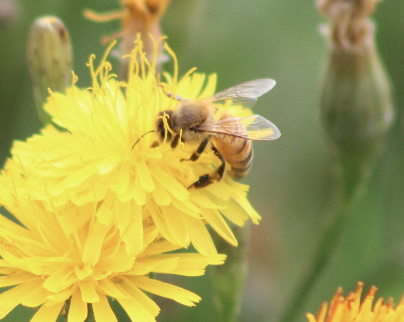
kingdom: Animalia
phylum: Arthropoda
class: Insecta
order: Hymenoptera
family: Apidae
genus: Apis
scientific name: Apis mellifera
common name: Honey bee
